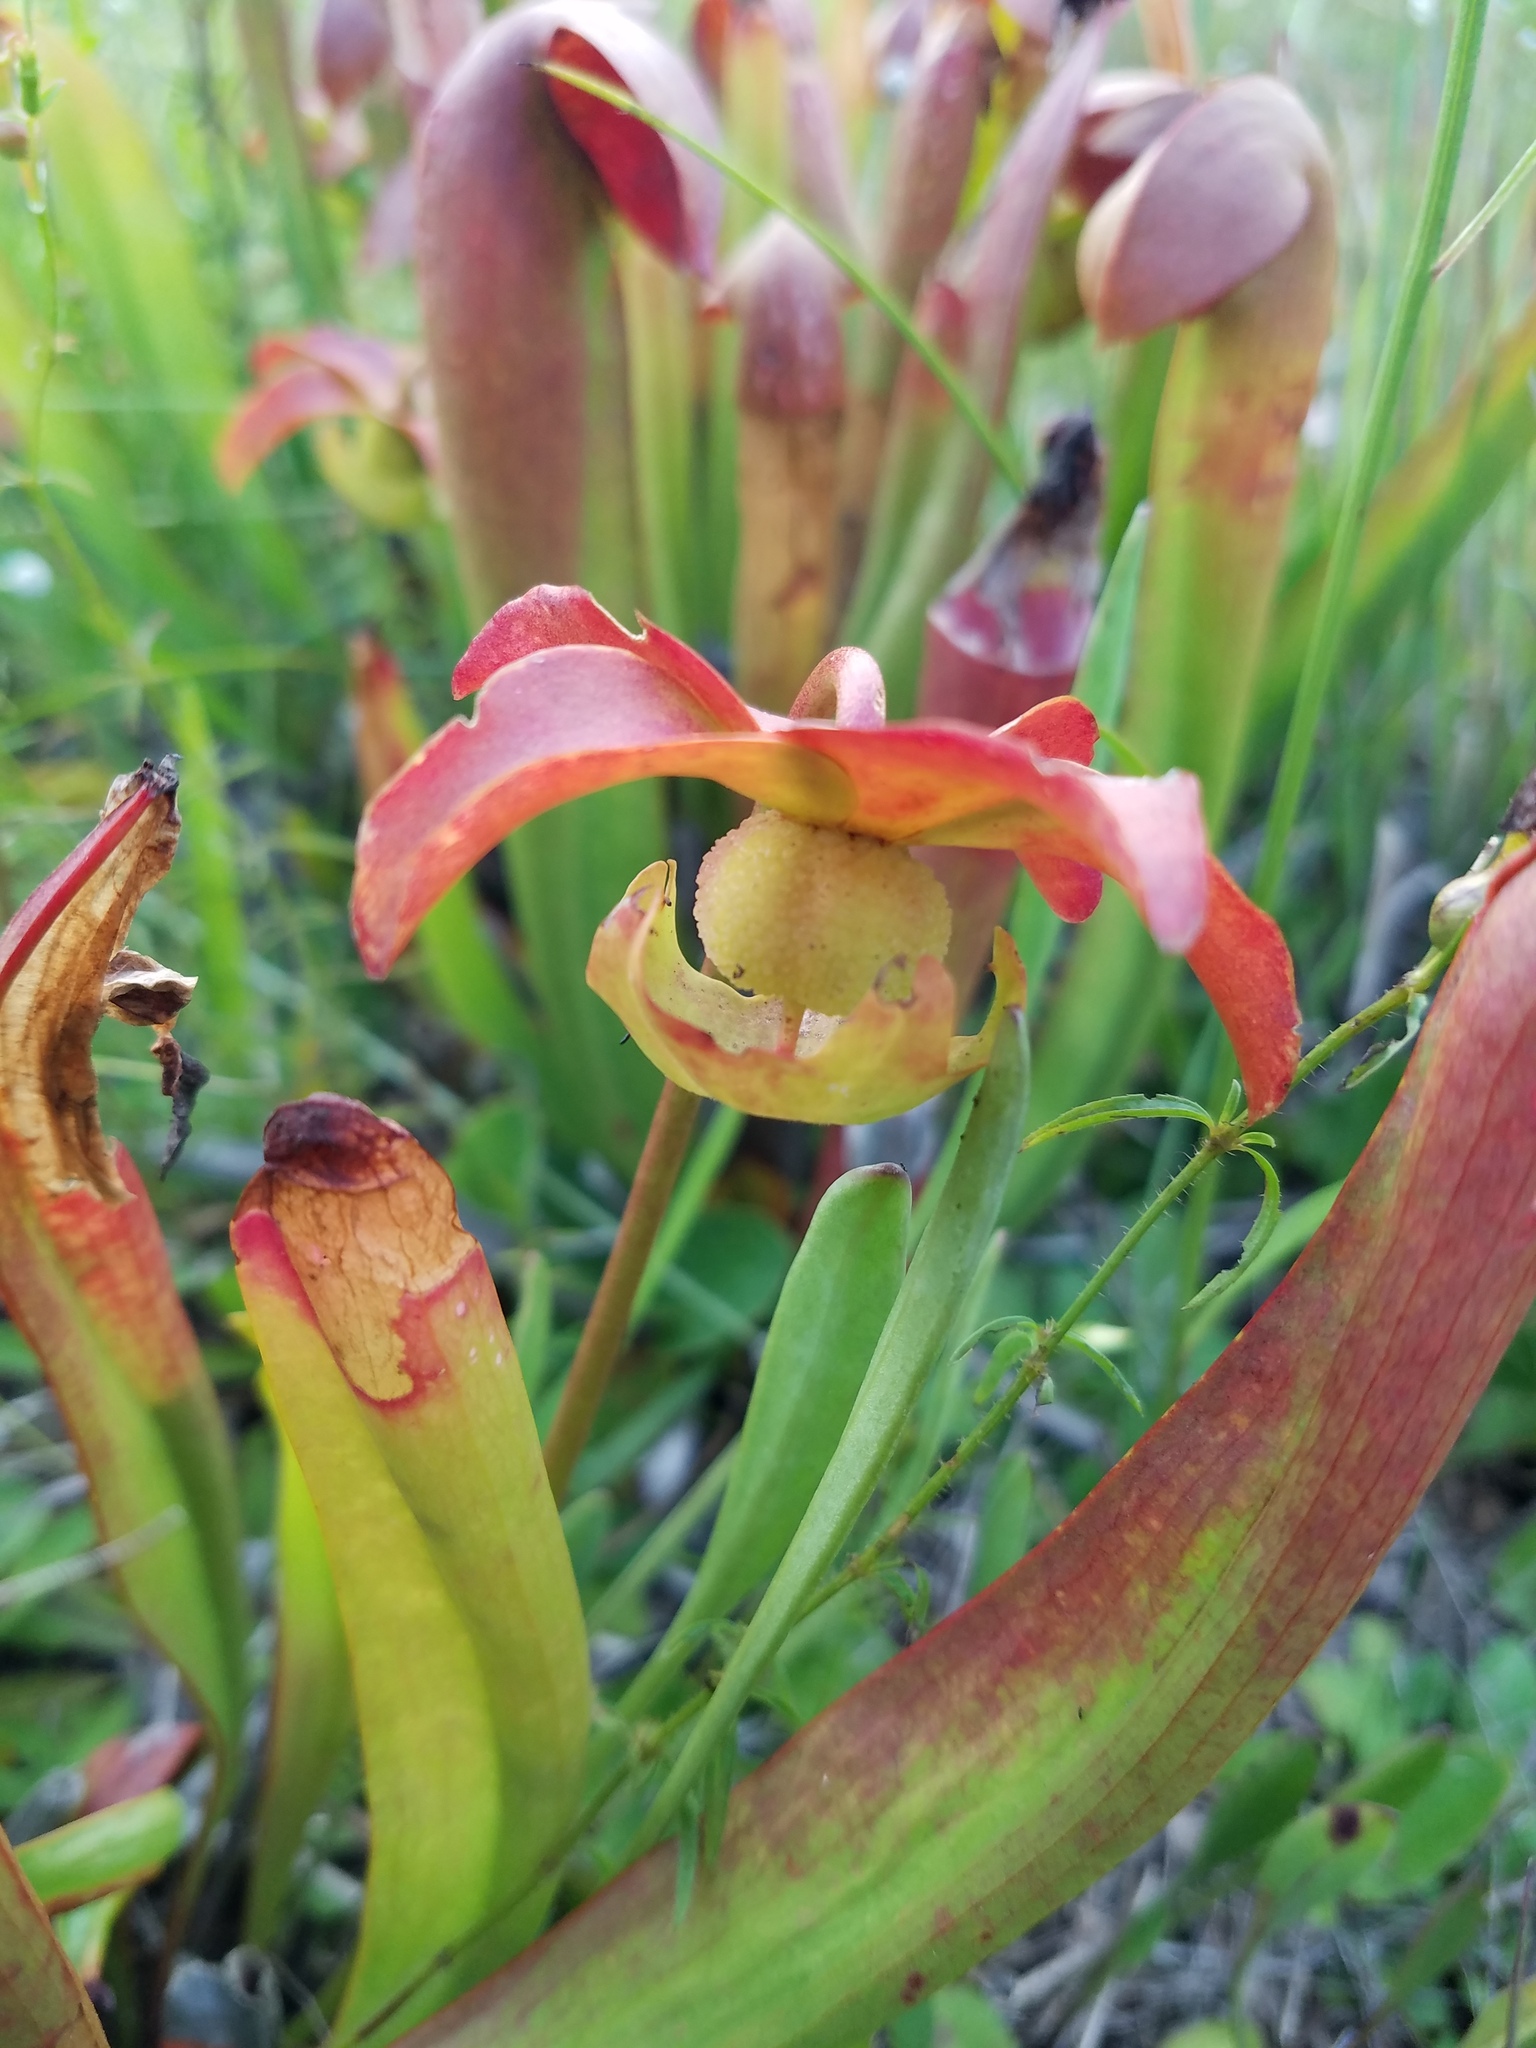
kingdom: Plantae
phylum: Tracheophyta
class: Magnoliopsida
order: Ericales
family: Sarraceniaceae
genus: Sarracenia
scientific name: Sarracenia minor
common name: Rainhat-trumpet
